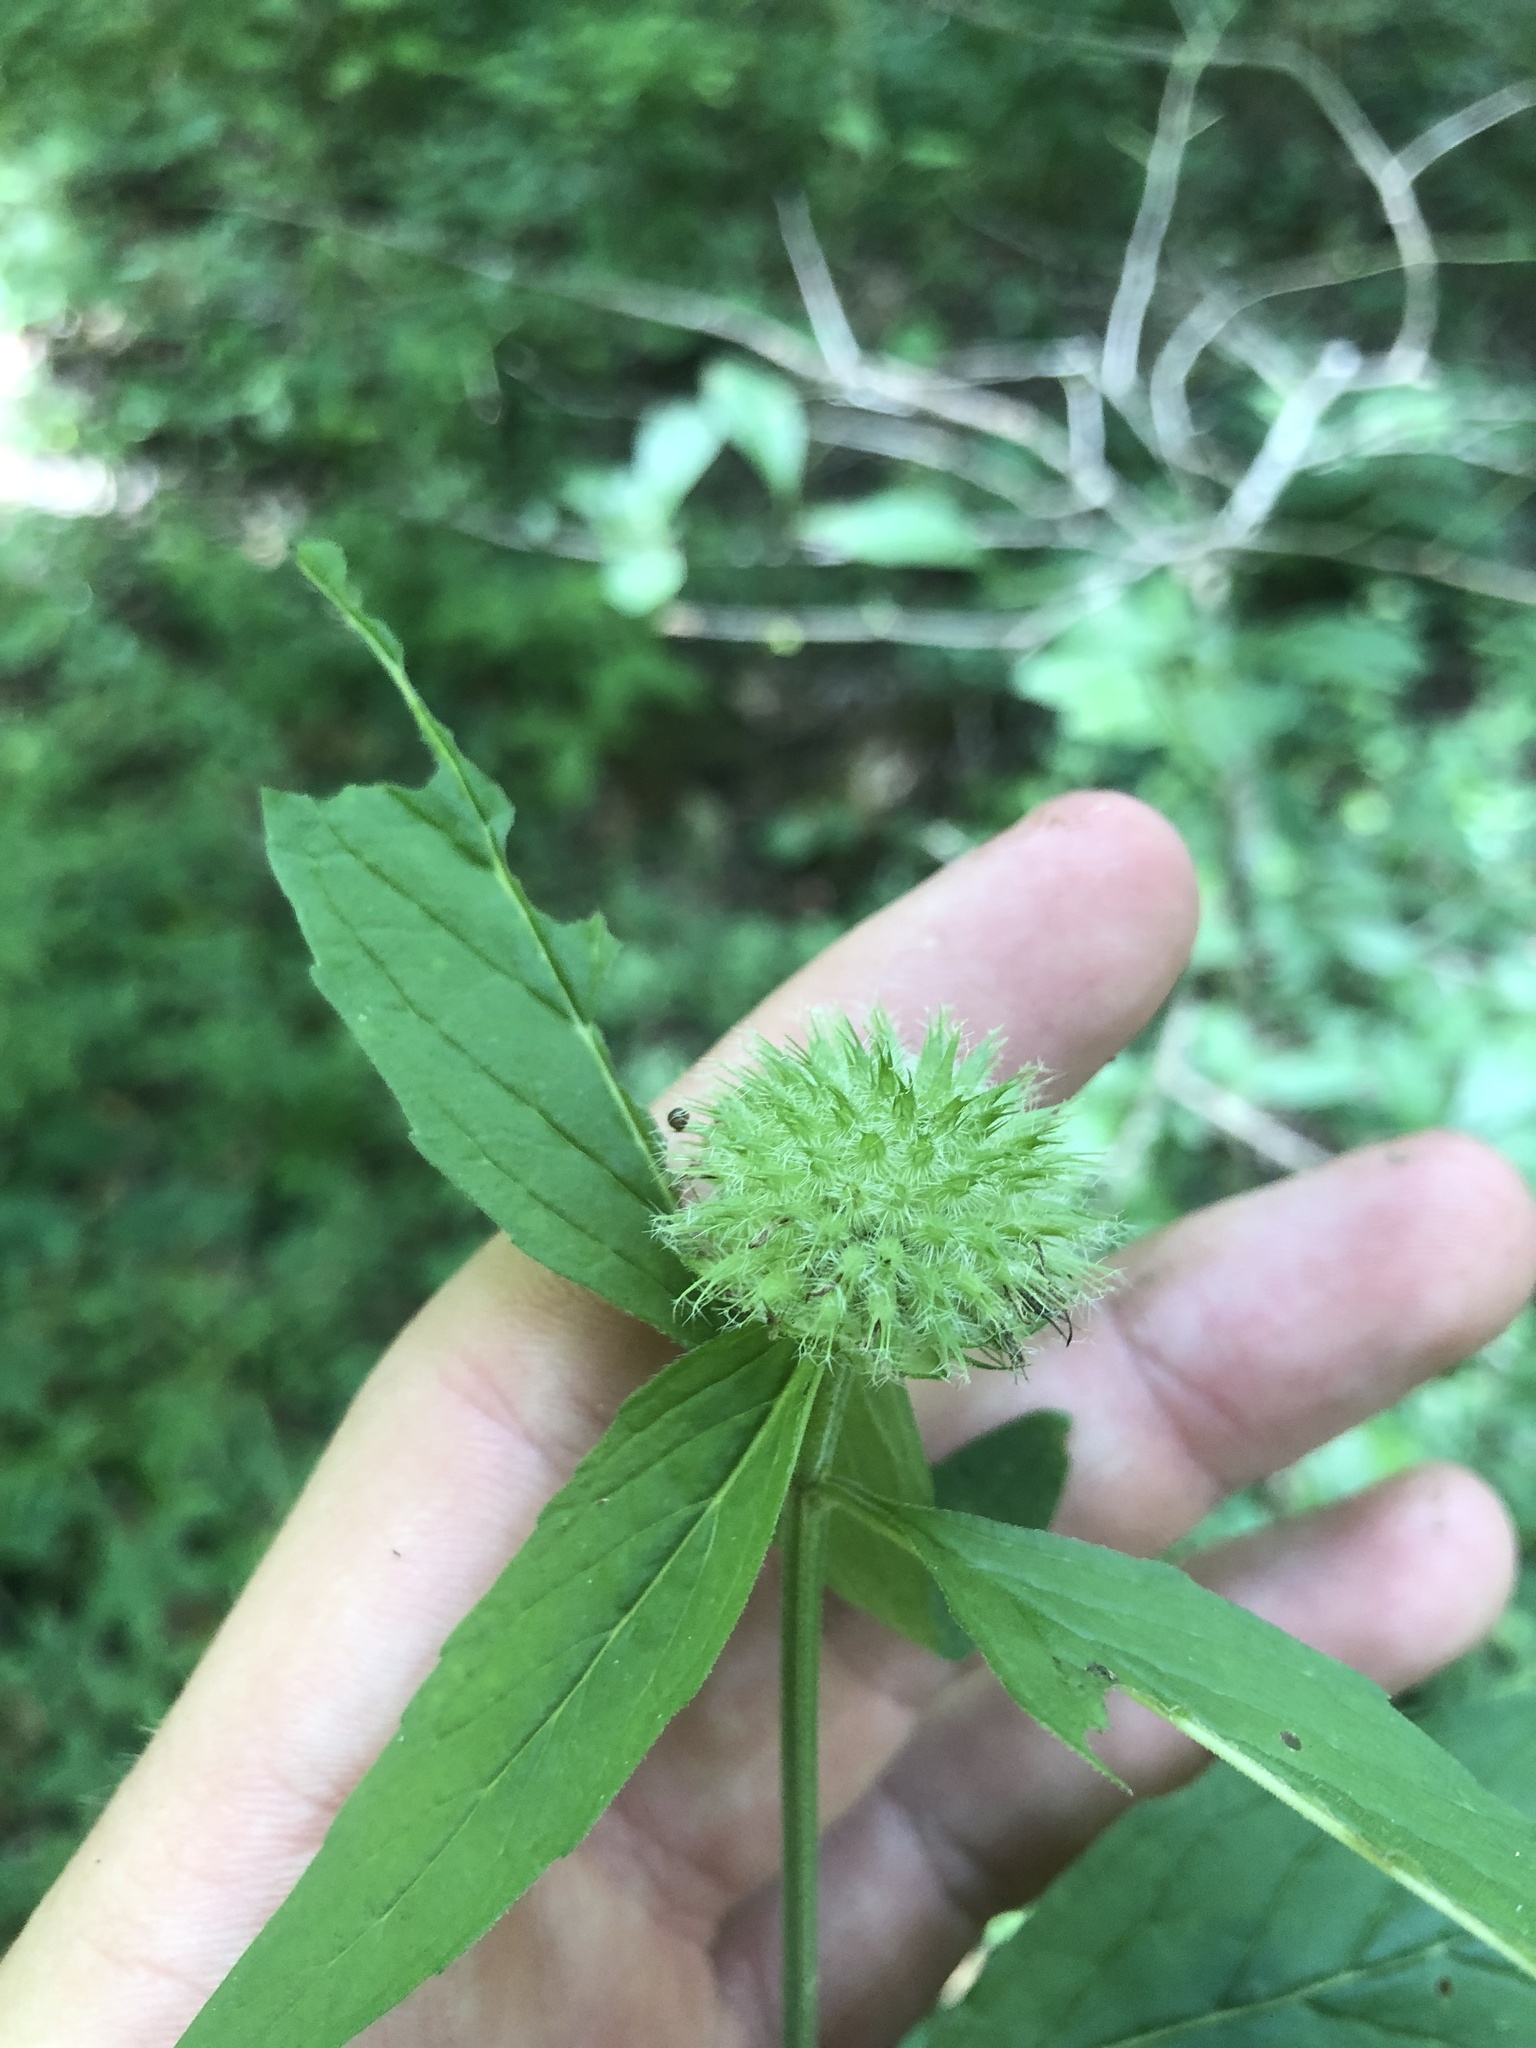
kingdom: Plantae
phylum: Tracheophyta
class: Magnoliopsida
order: Lamiales
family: Lamiaceae
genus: Blephilia
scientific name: Blephilia ciliata
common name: Downy blephilia
